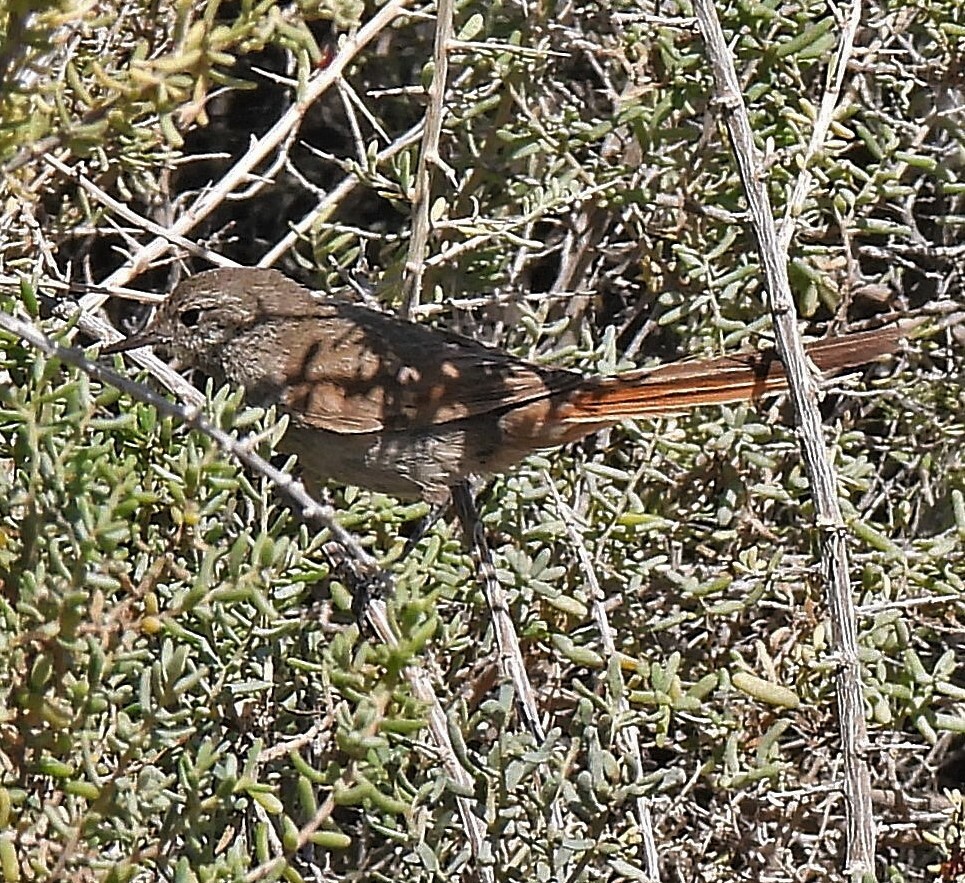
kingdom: Animalia
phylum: Chordata
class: Aves
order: Passeriformes
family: Furnariidae
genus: Asthenes
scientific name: Asthenes pyrrholeuca
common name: Sharp-billed canastero
